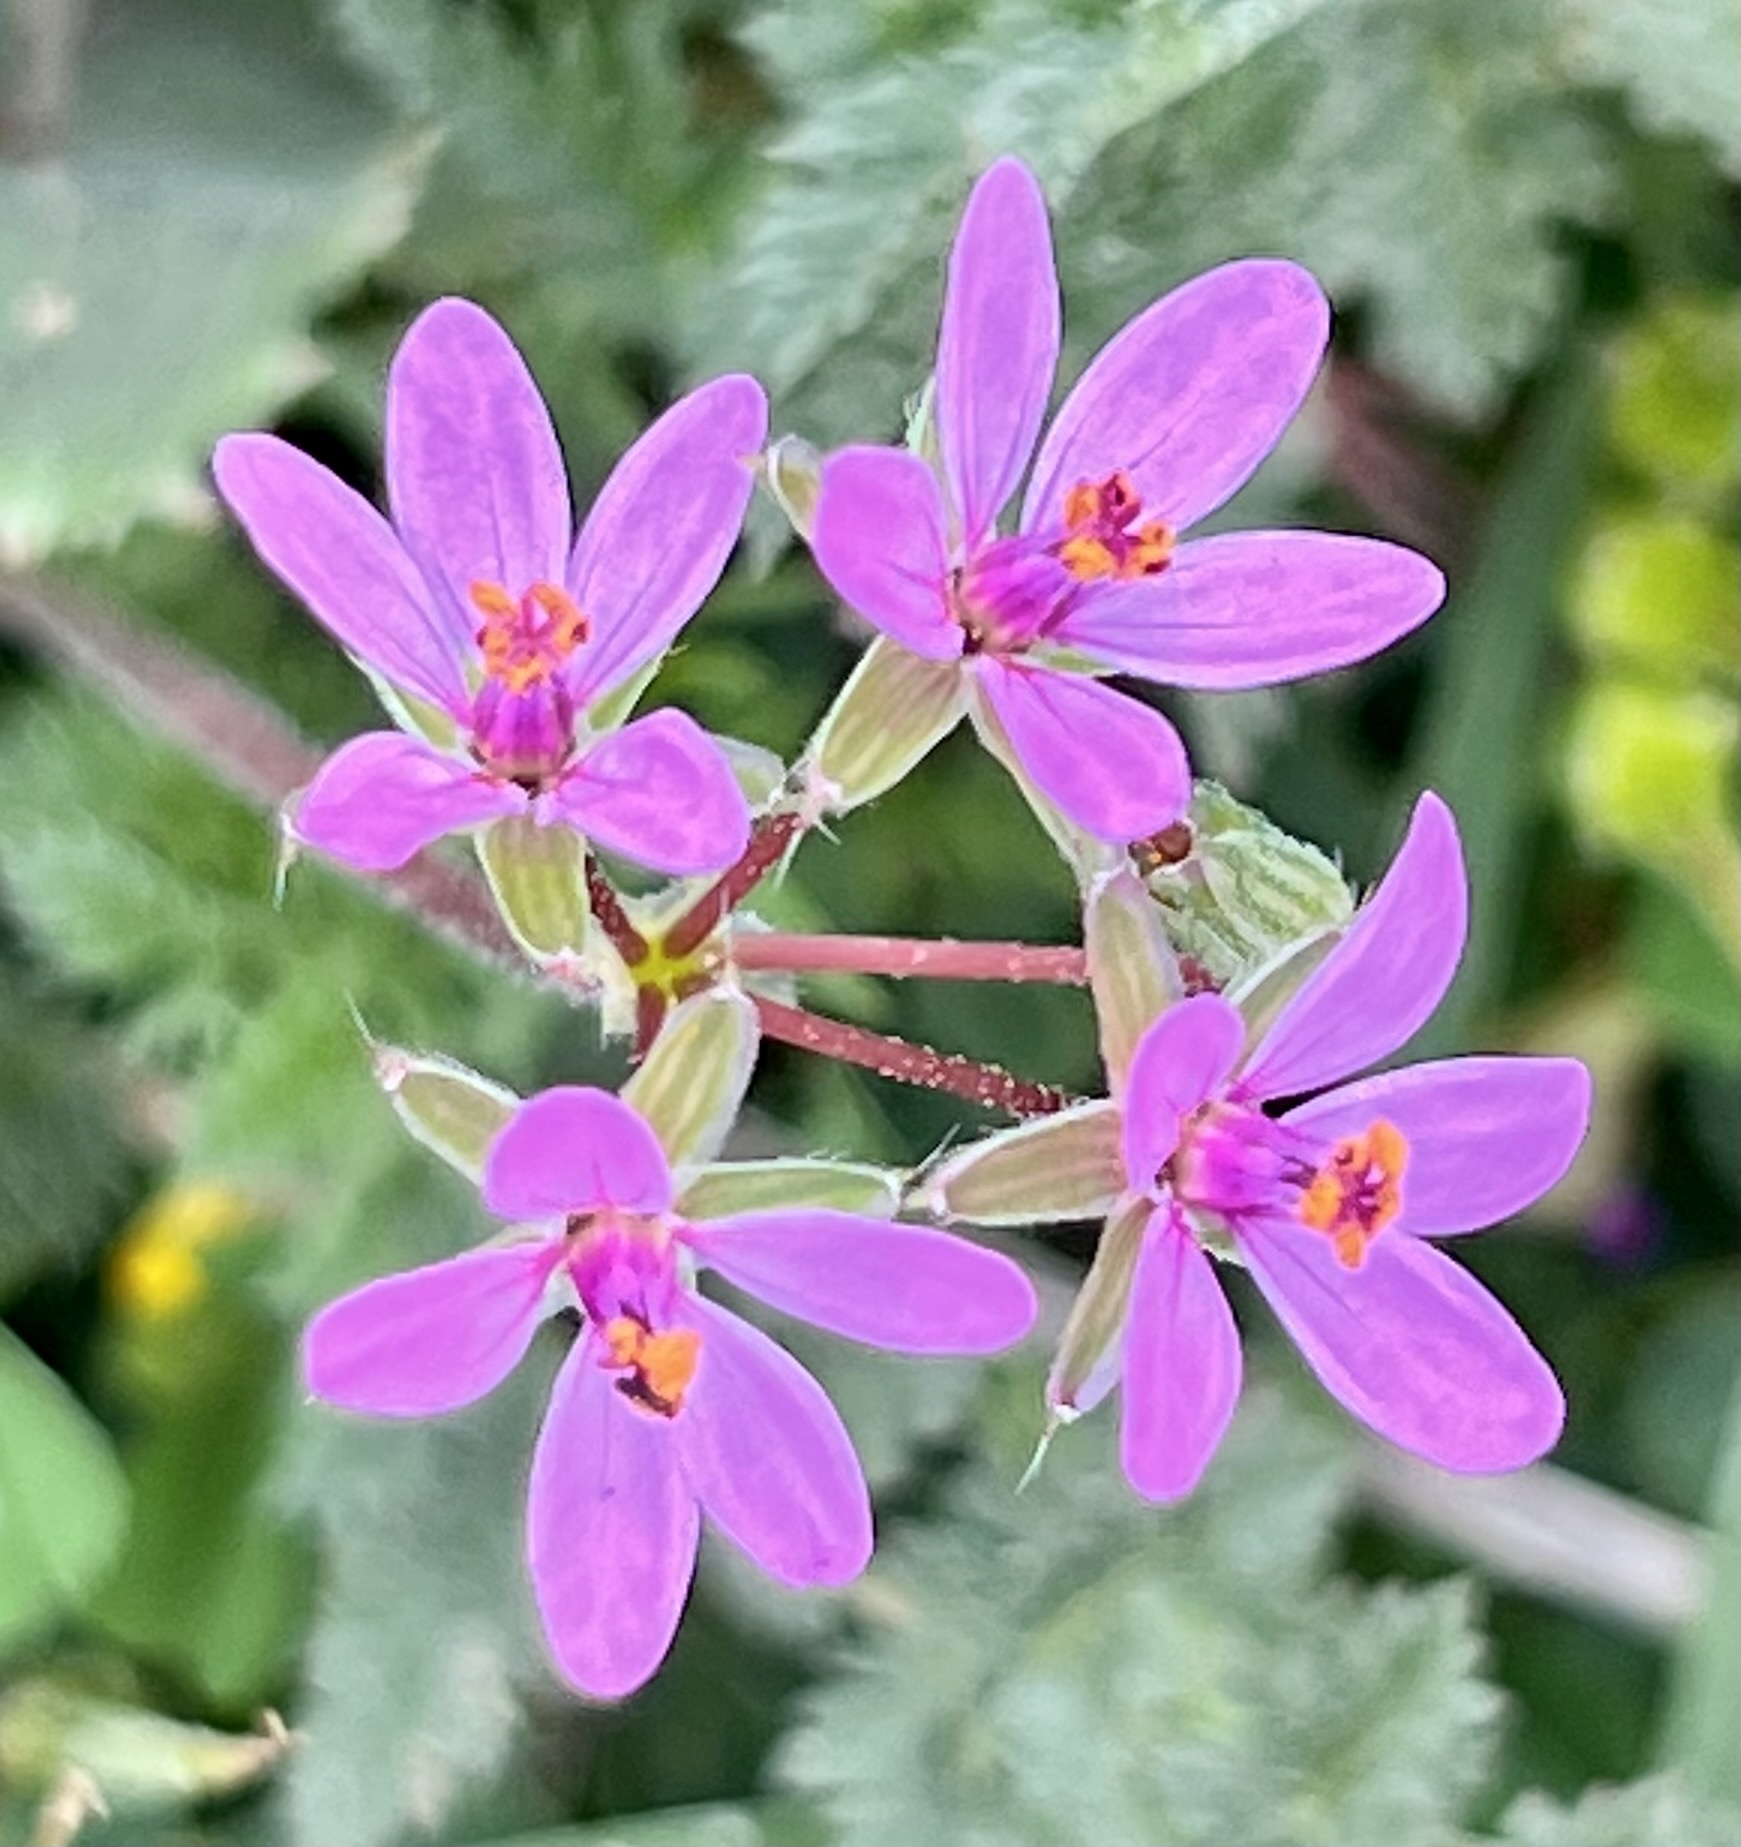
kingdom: Plantae
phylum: Tracheophyta
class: Magnoliopsida
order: Geraniales
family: Geraniaceae
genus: Erodium
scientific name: Erodium cicutarium
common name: Common stork's-bill
